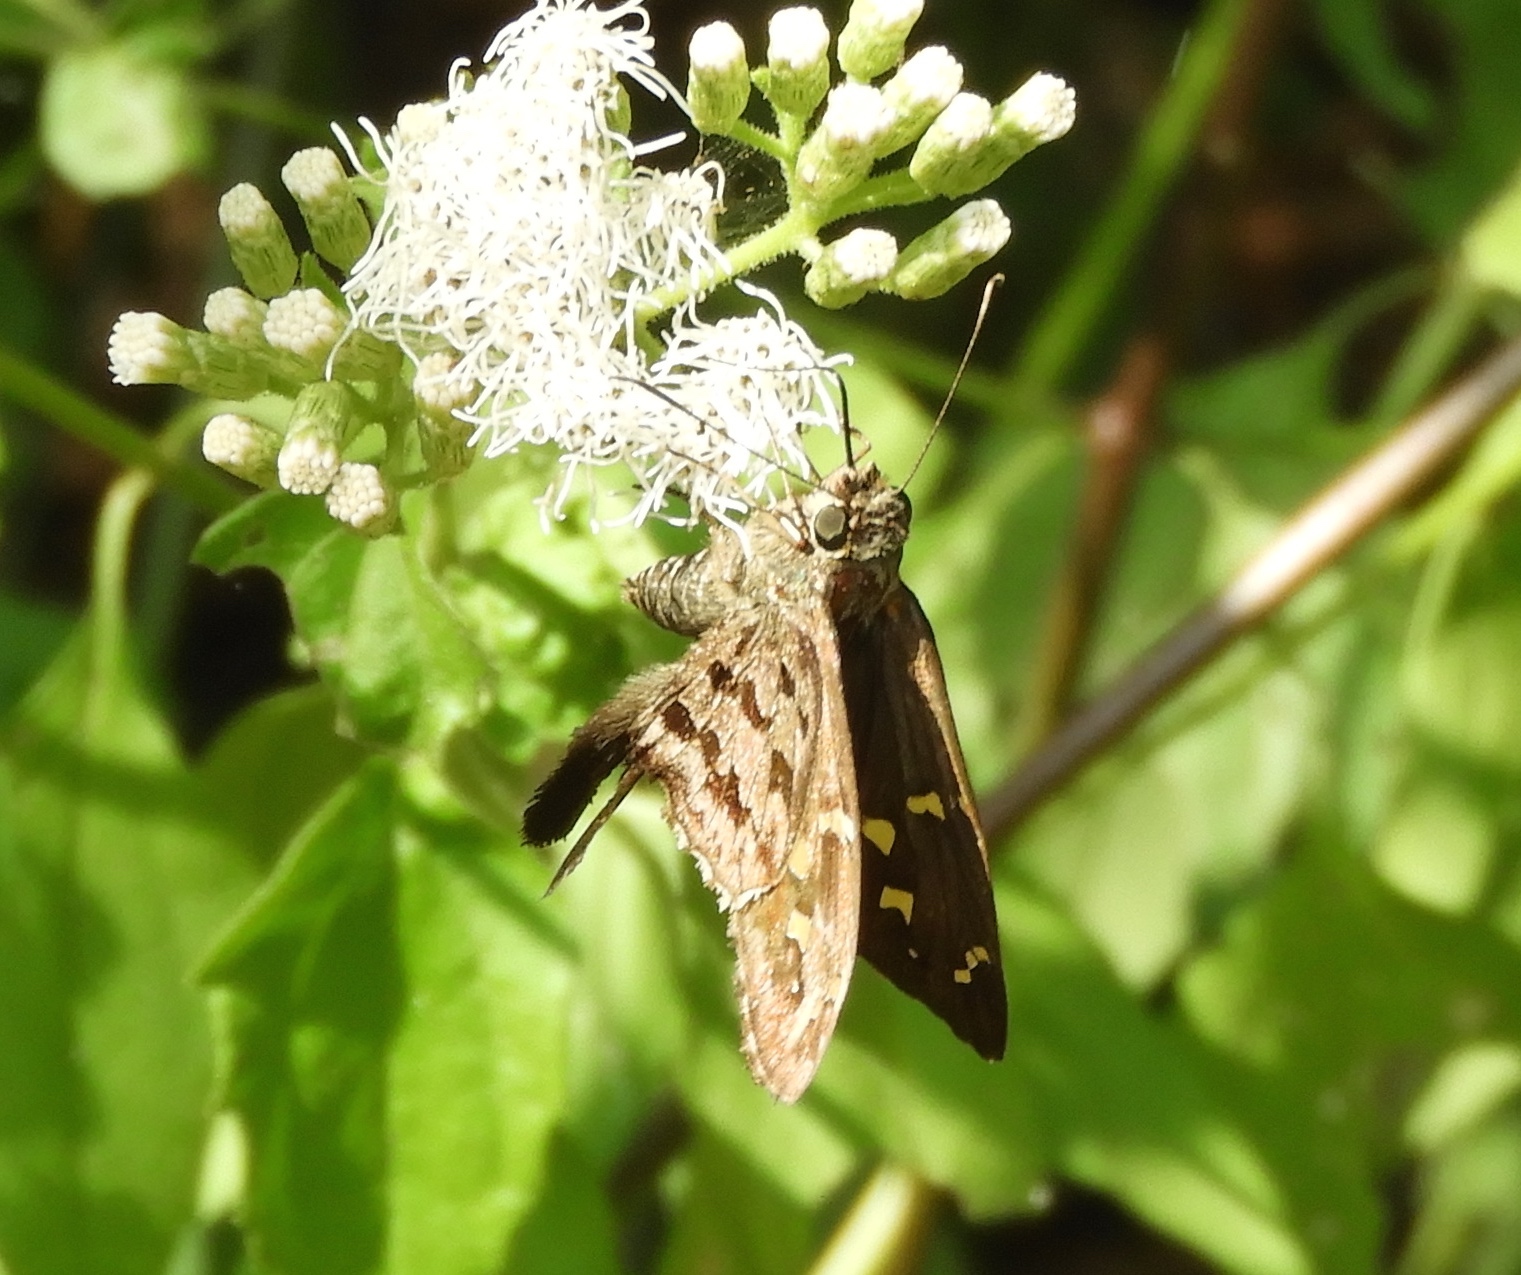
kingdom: Animalia
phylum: Arthropoda
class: Insecta
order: Lepidoptera
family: Hesperiidae
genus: Thorybes
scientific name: Thorybes
